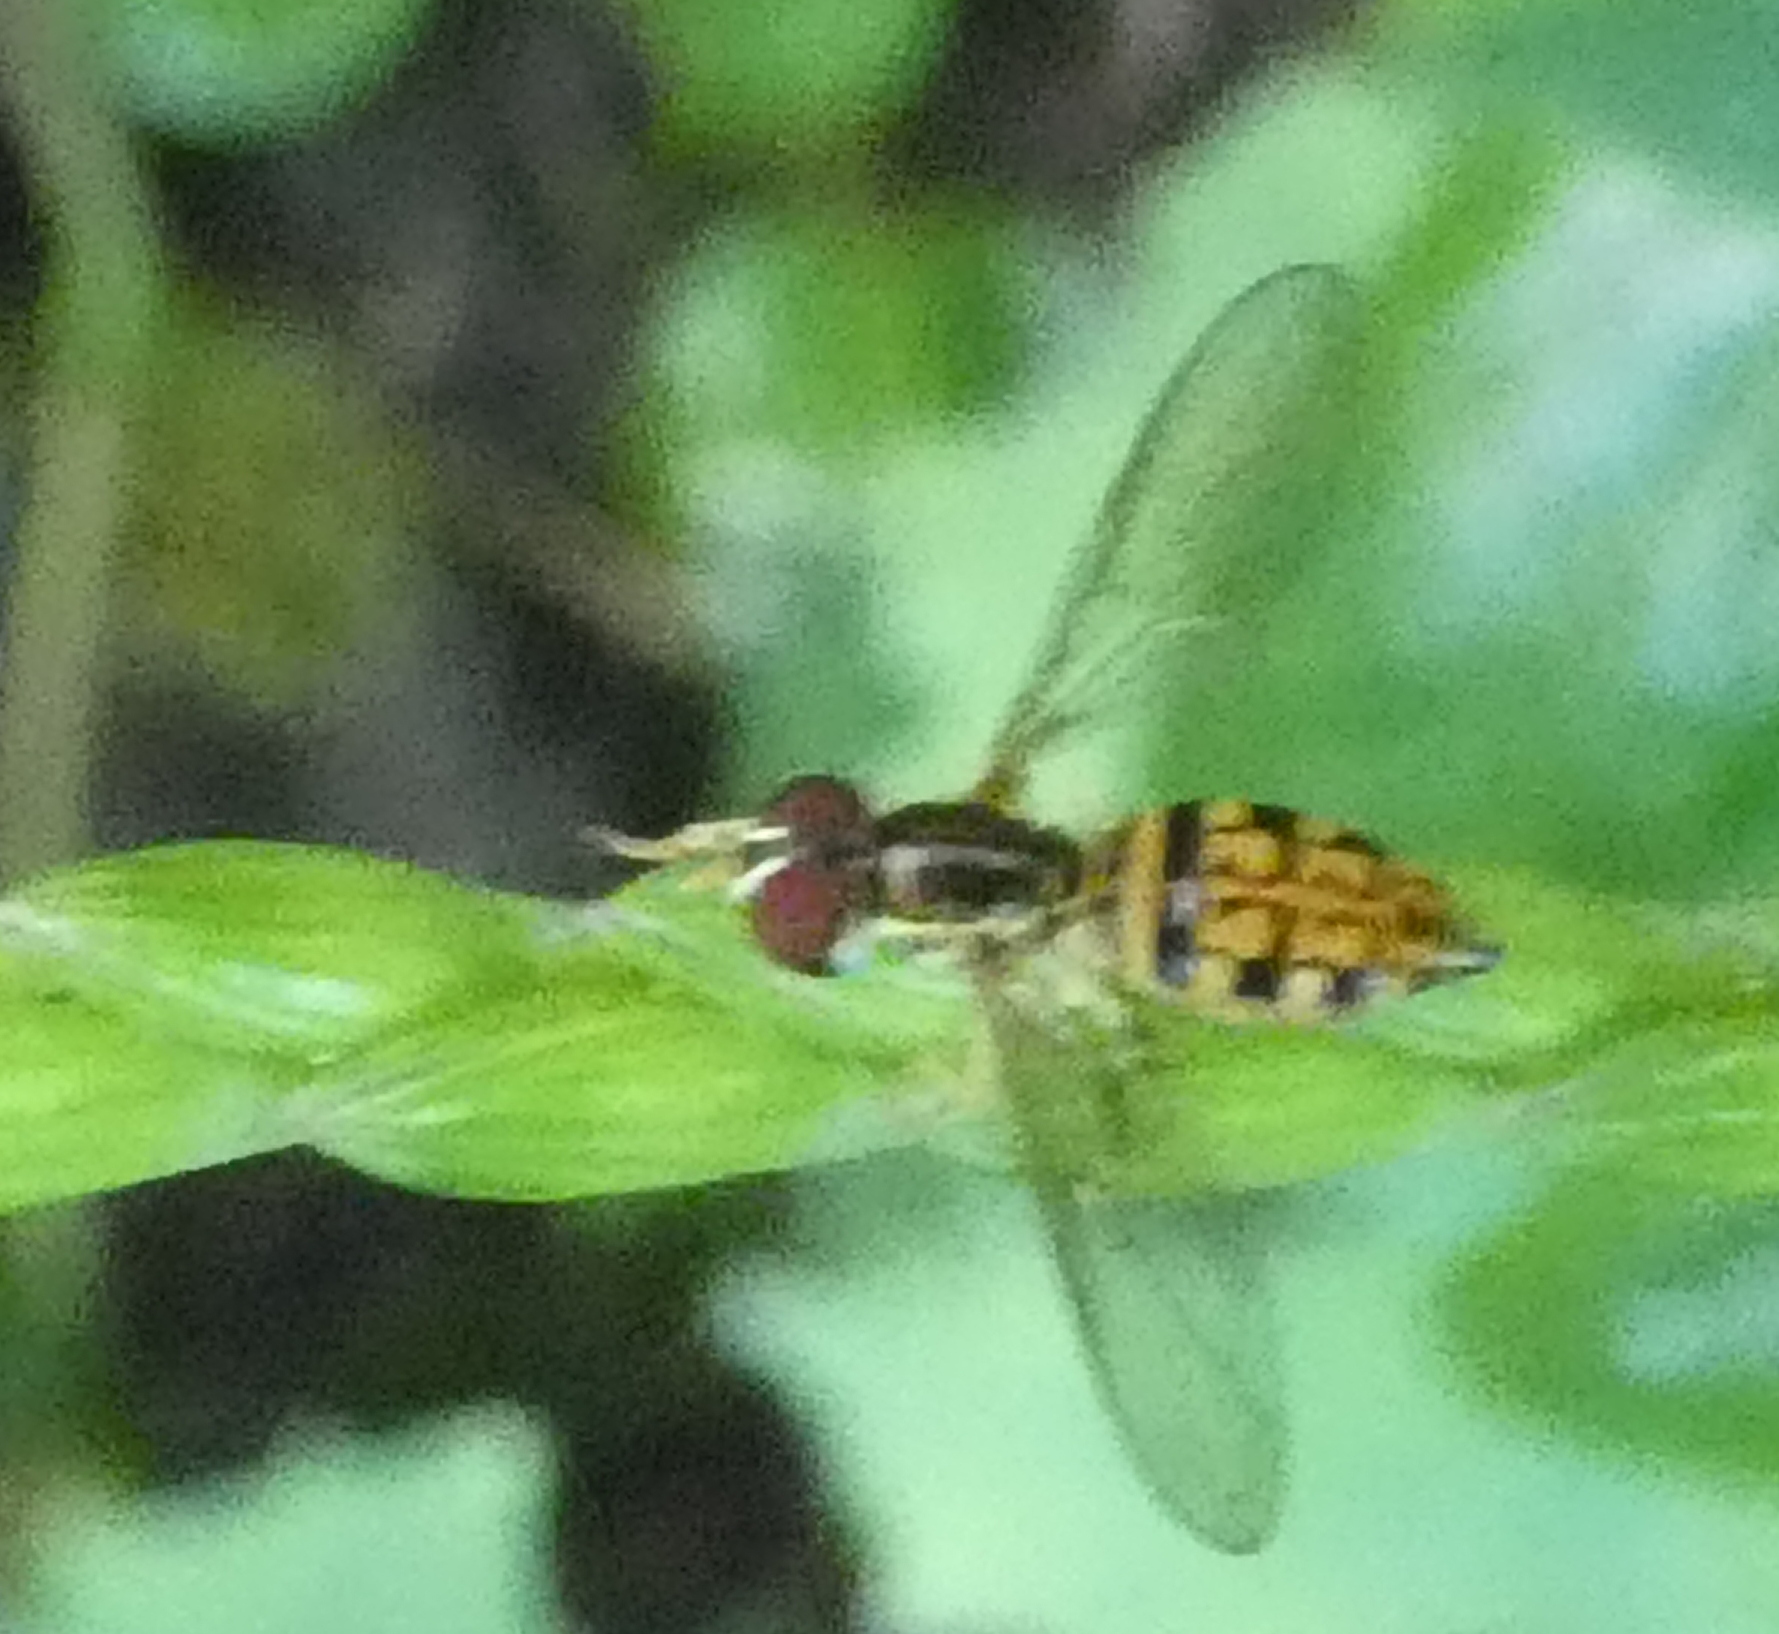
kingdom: Animalia
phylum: Arthropoda
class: Insecta
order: Diptera
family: Syrphidae
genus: Toxomerus
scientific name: Toxomerus pictus
